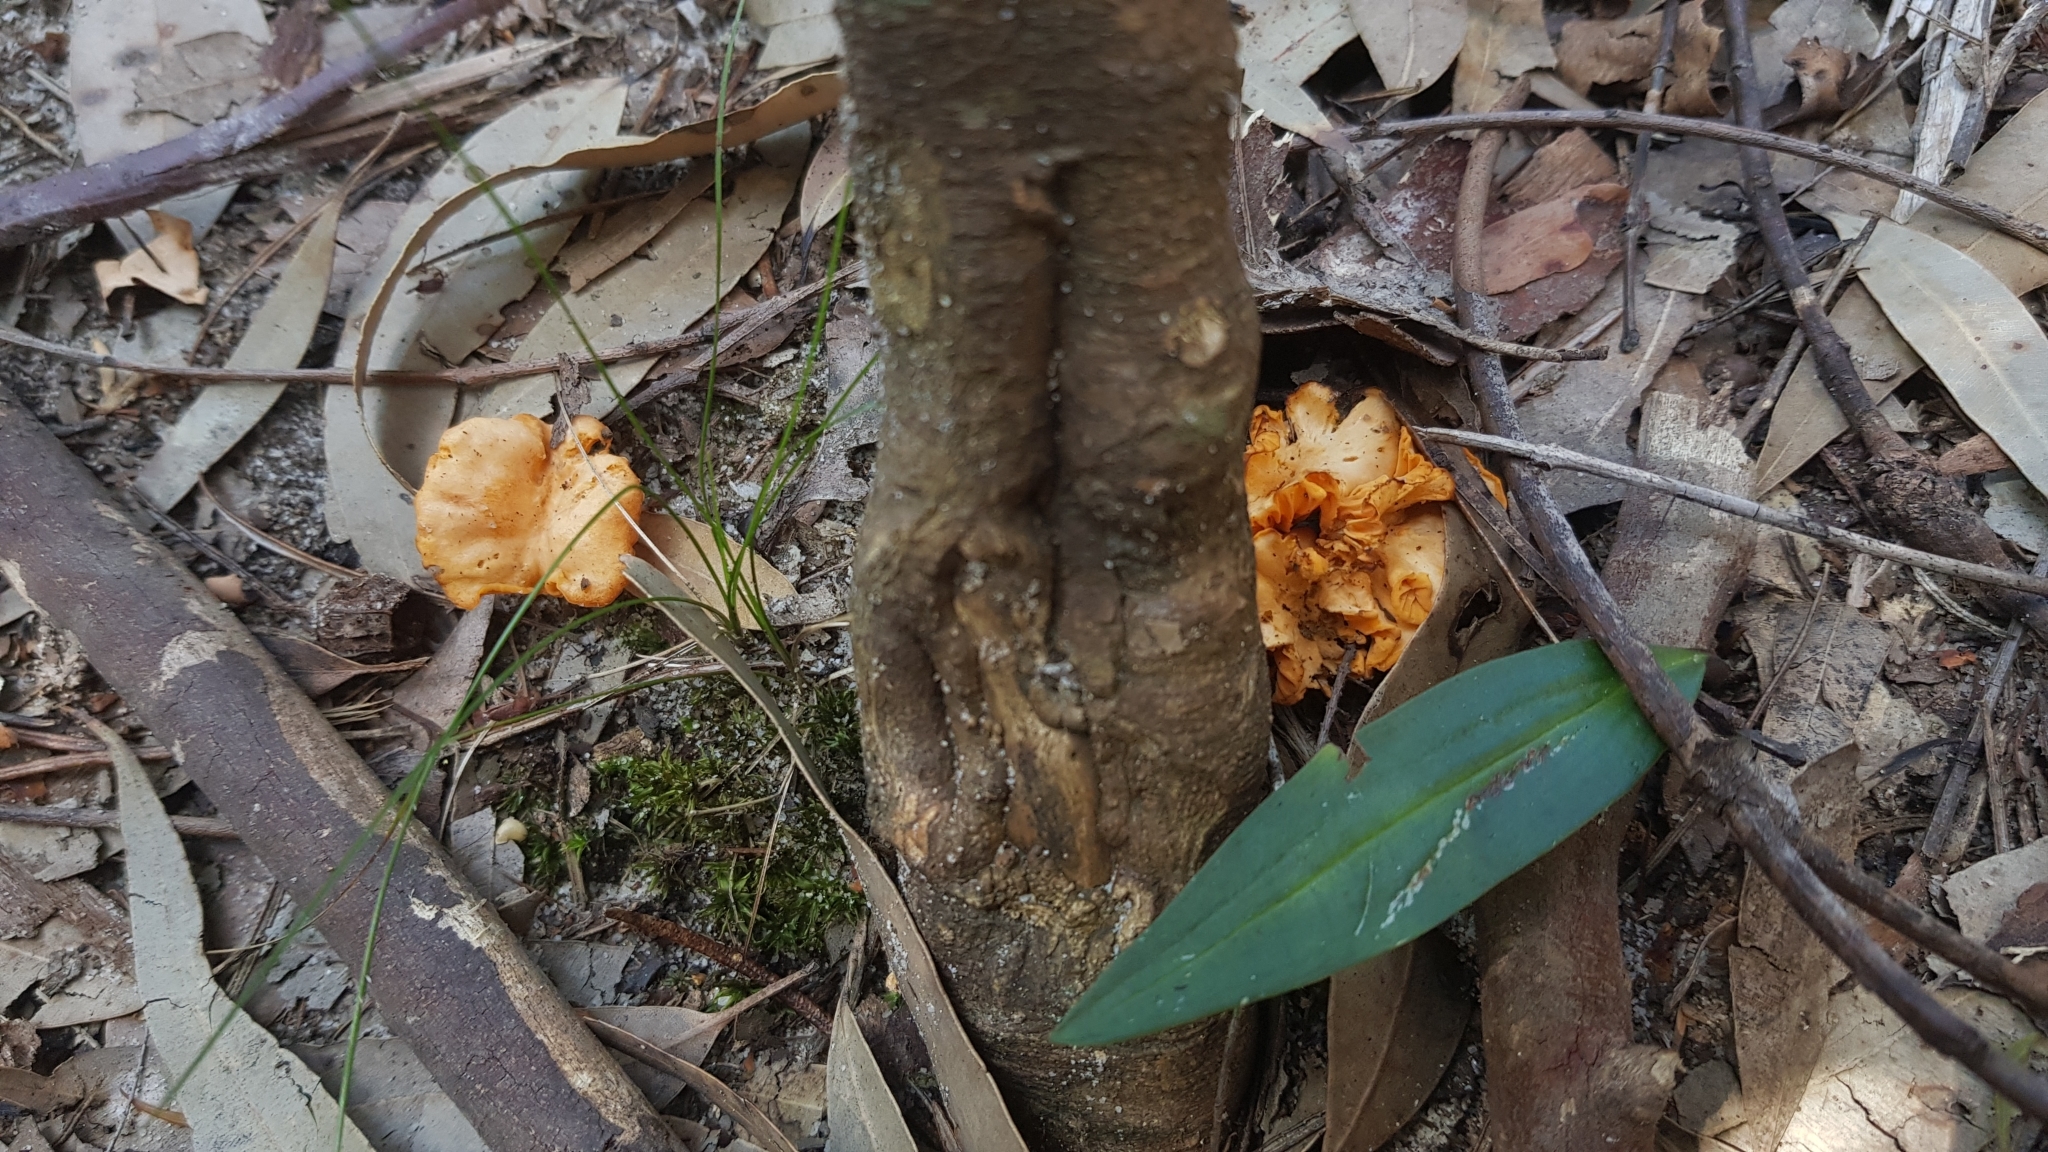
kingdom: Fungi
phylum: Basidiomycota
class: Agaricomycetes
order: Cantharellales
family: Hydnaceae
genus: Cantharellus
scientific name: Cantharellus
